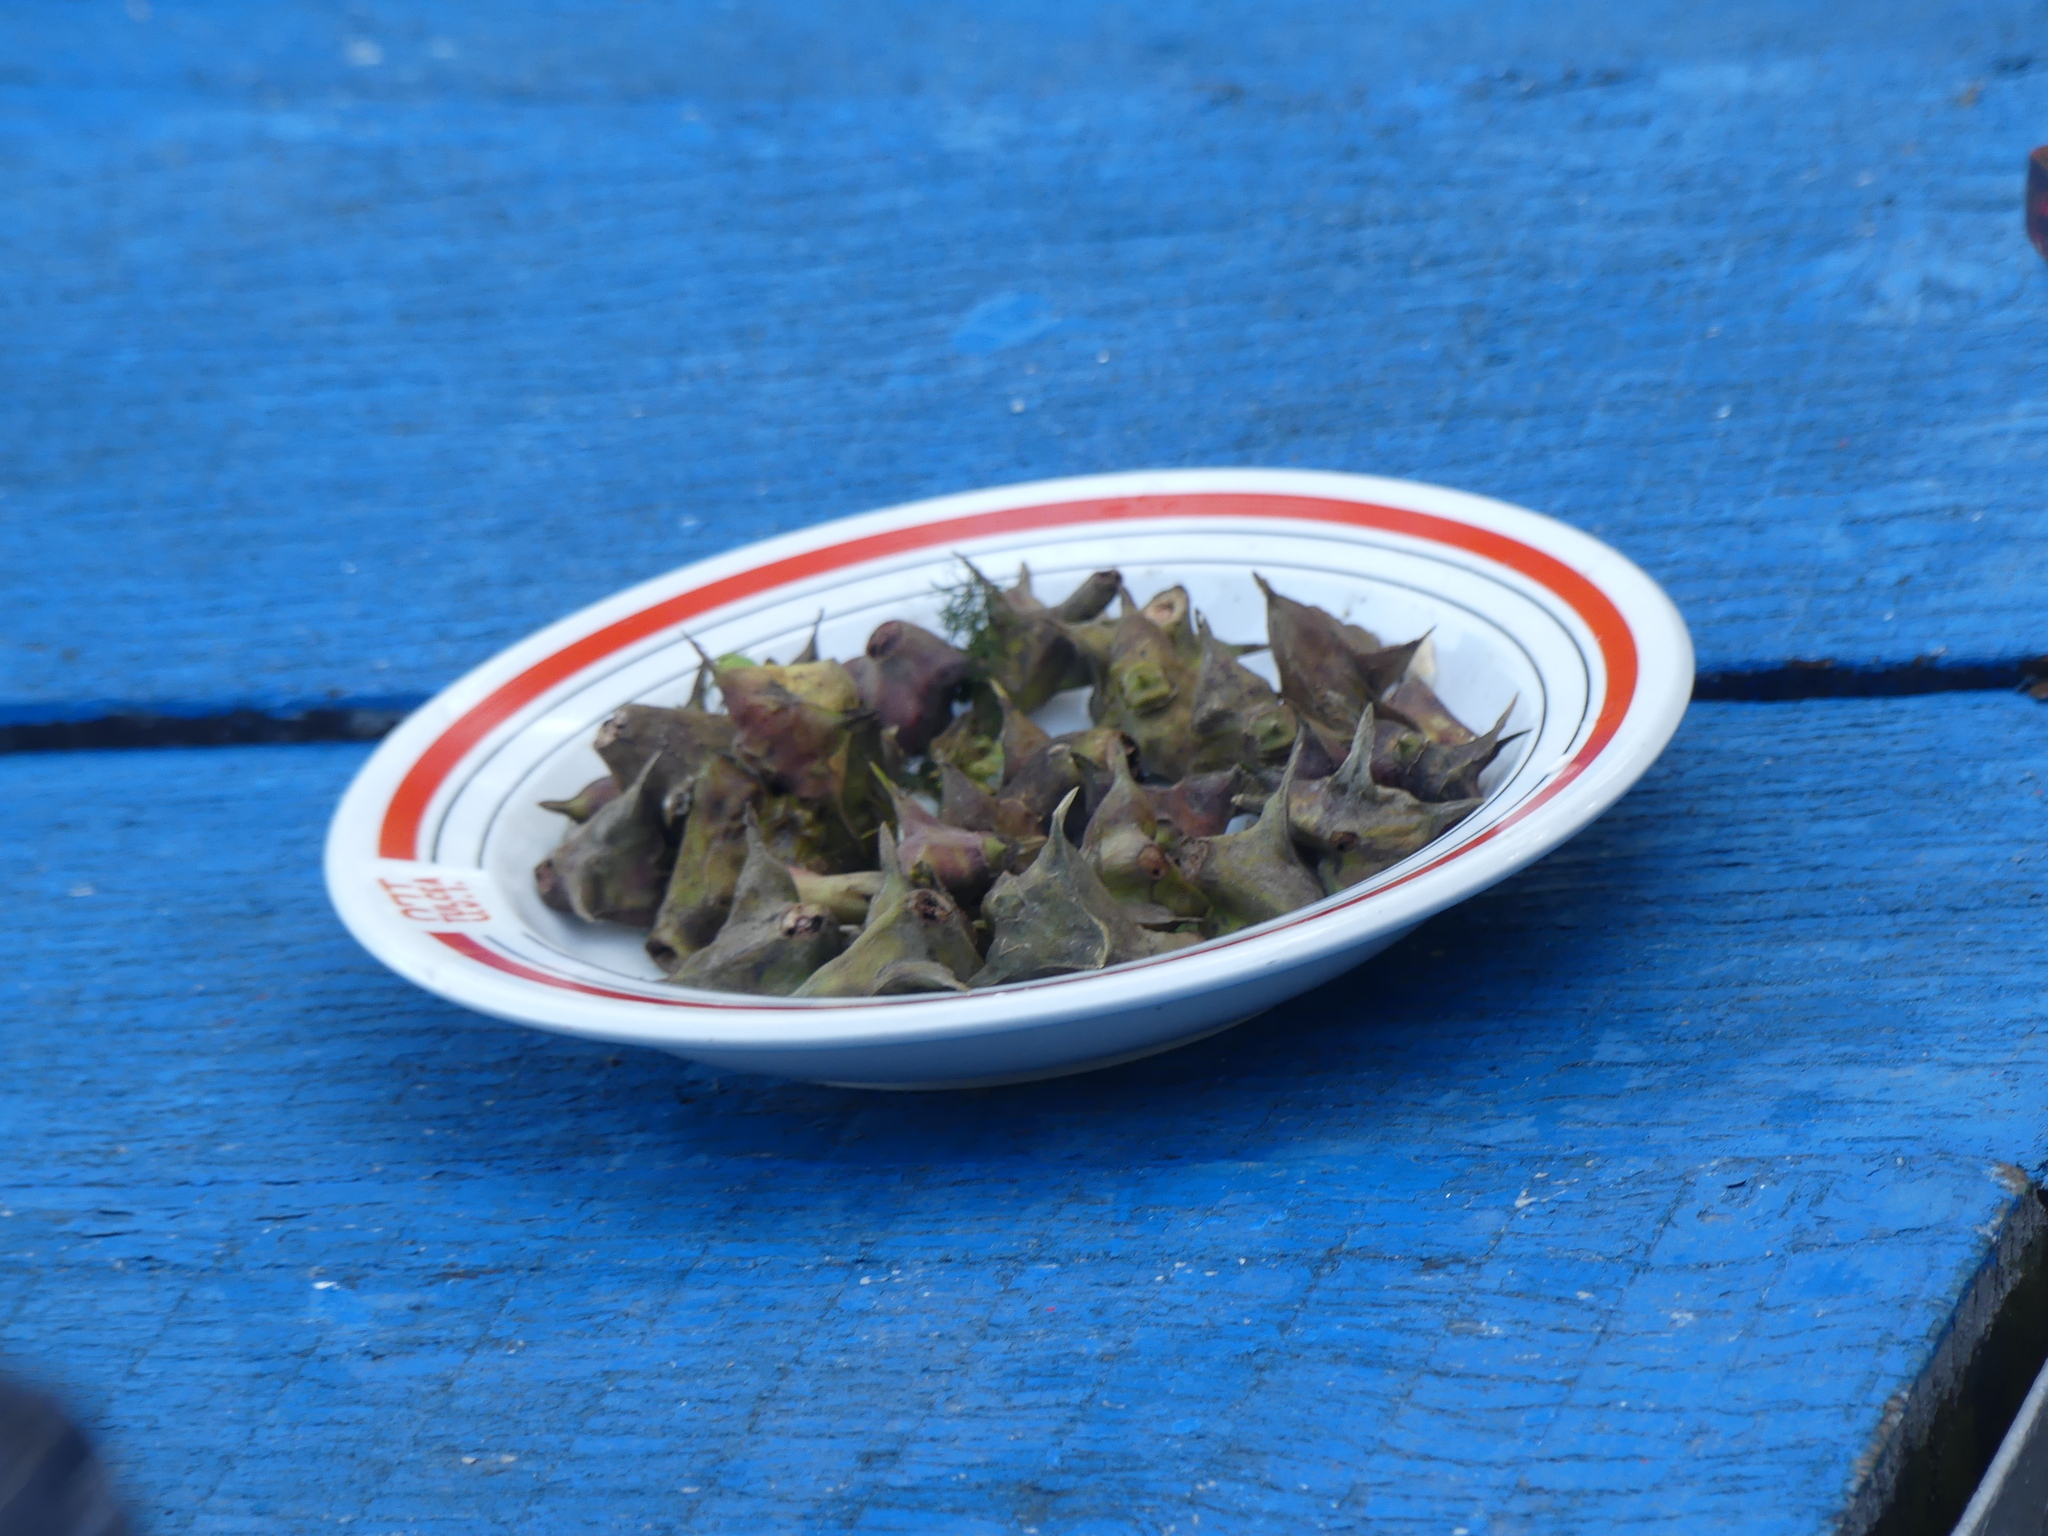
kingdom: Plantae
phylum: Tracheophyta
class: Magnoliopsida
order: Myrtales
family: Lythraceae
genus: Trapa
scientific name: Trapa natans
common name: Water chestnut
